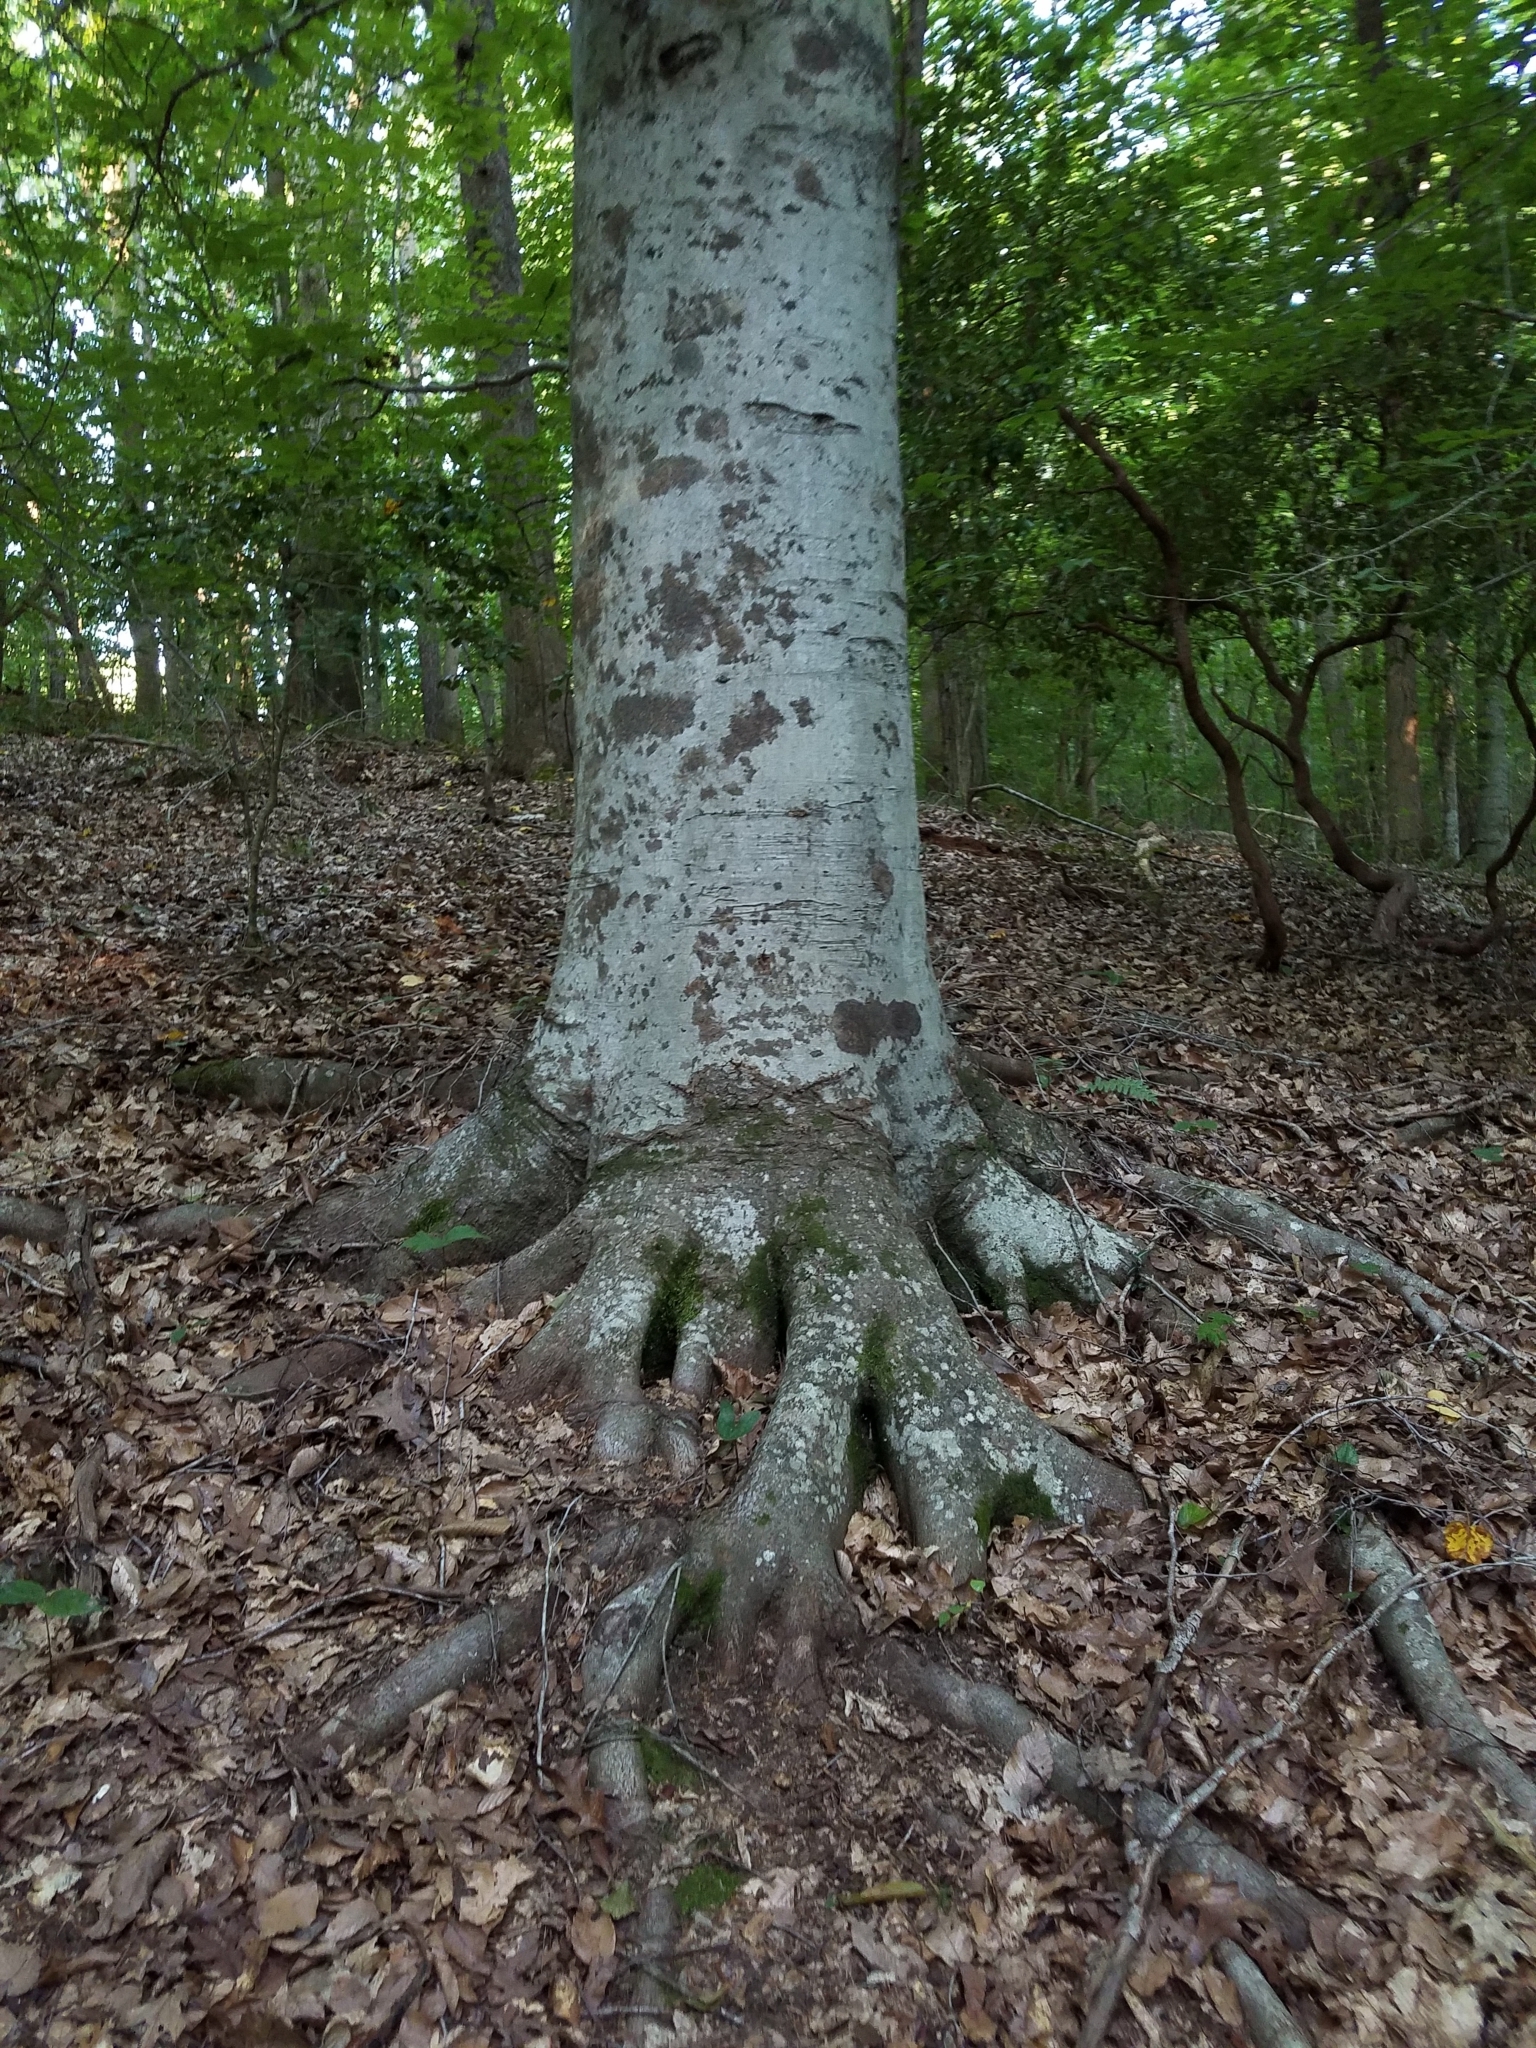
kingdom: Plantae
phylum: Tracheophyta
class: Magnoliopsida
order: Fagales
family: Fagaceae
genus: Fagus
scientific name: Fagus grandifolia
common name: American beech
